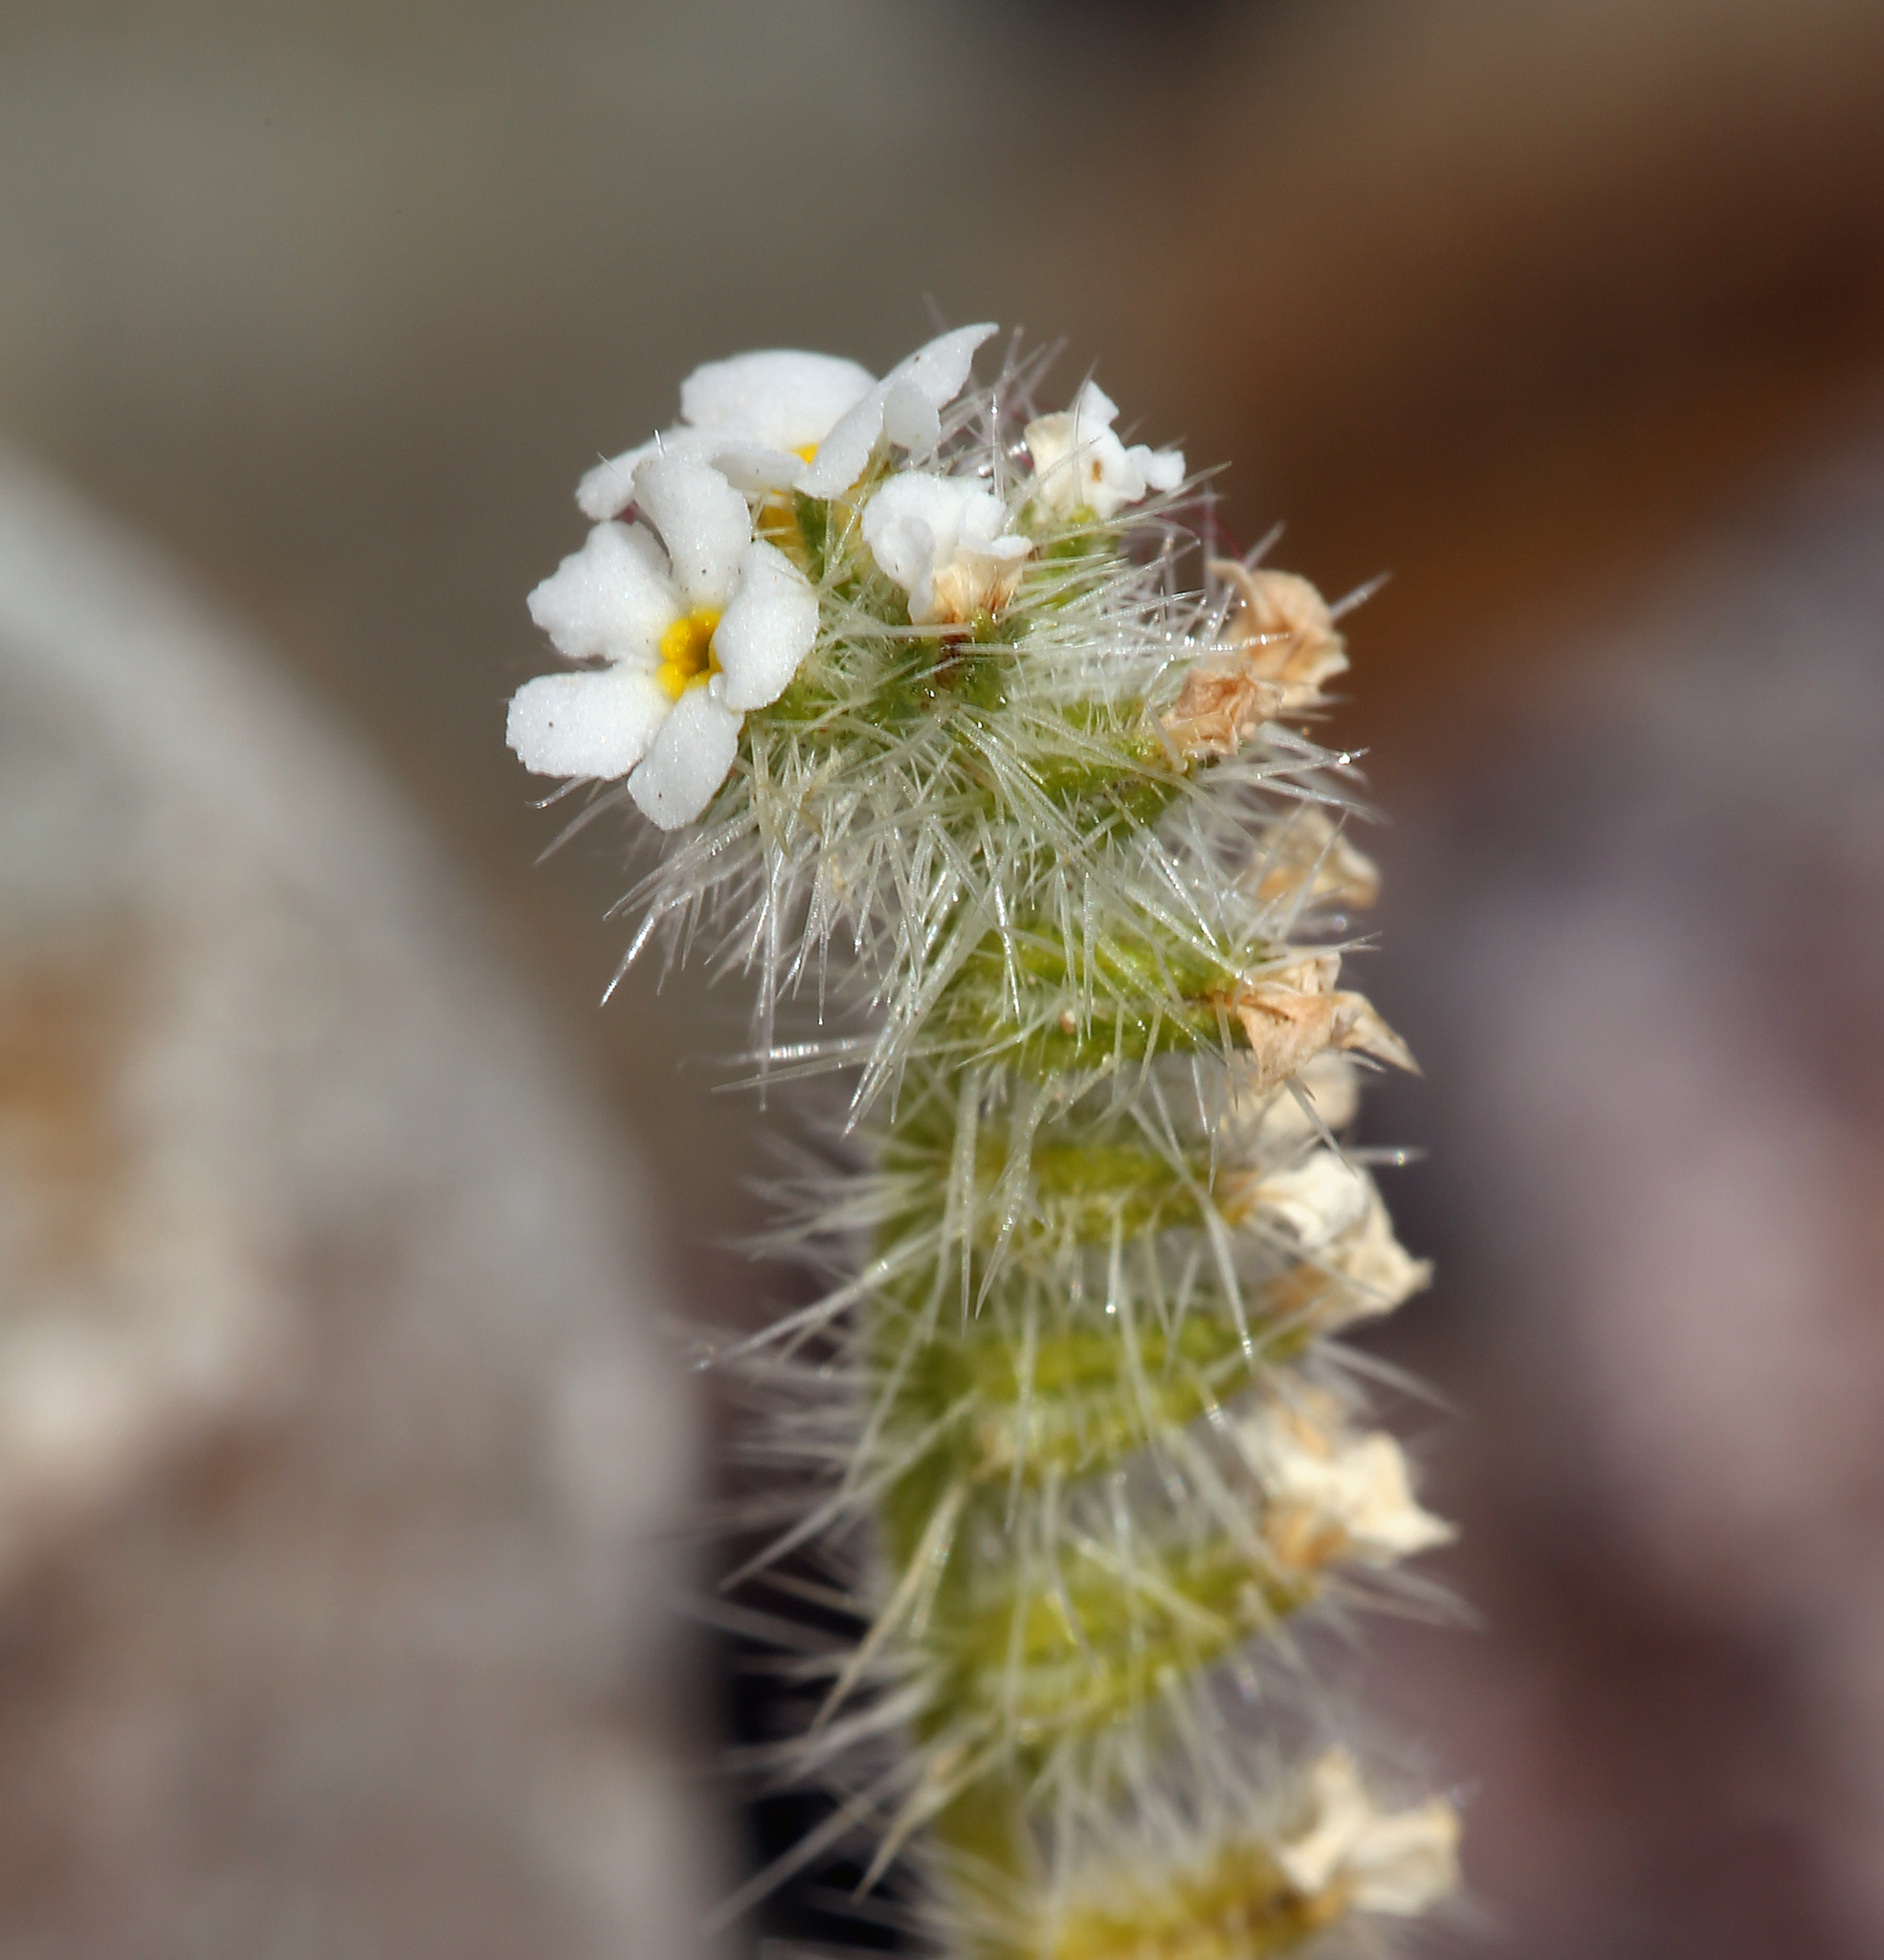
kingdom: Plantae
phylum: Tracheophyta
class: Magnoliopsida
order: Boraginales
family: Boraginaceae
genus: Johnstonella
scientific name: Johnstonella angustifolia
